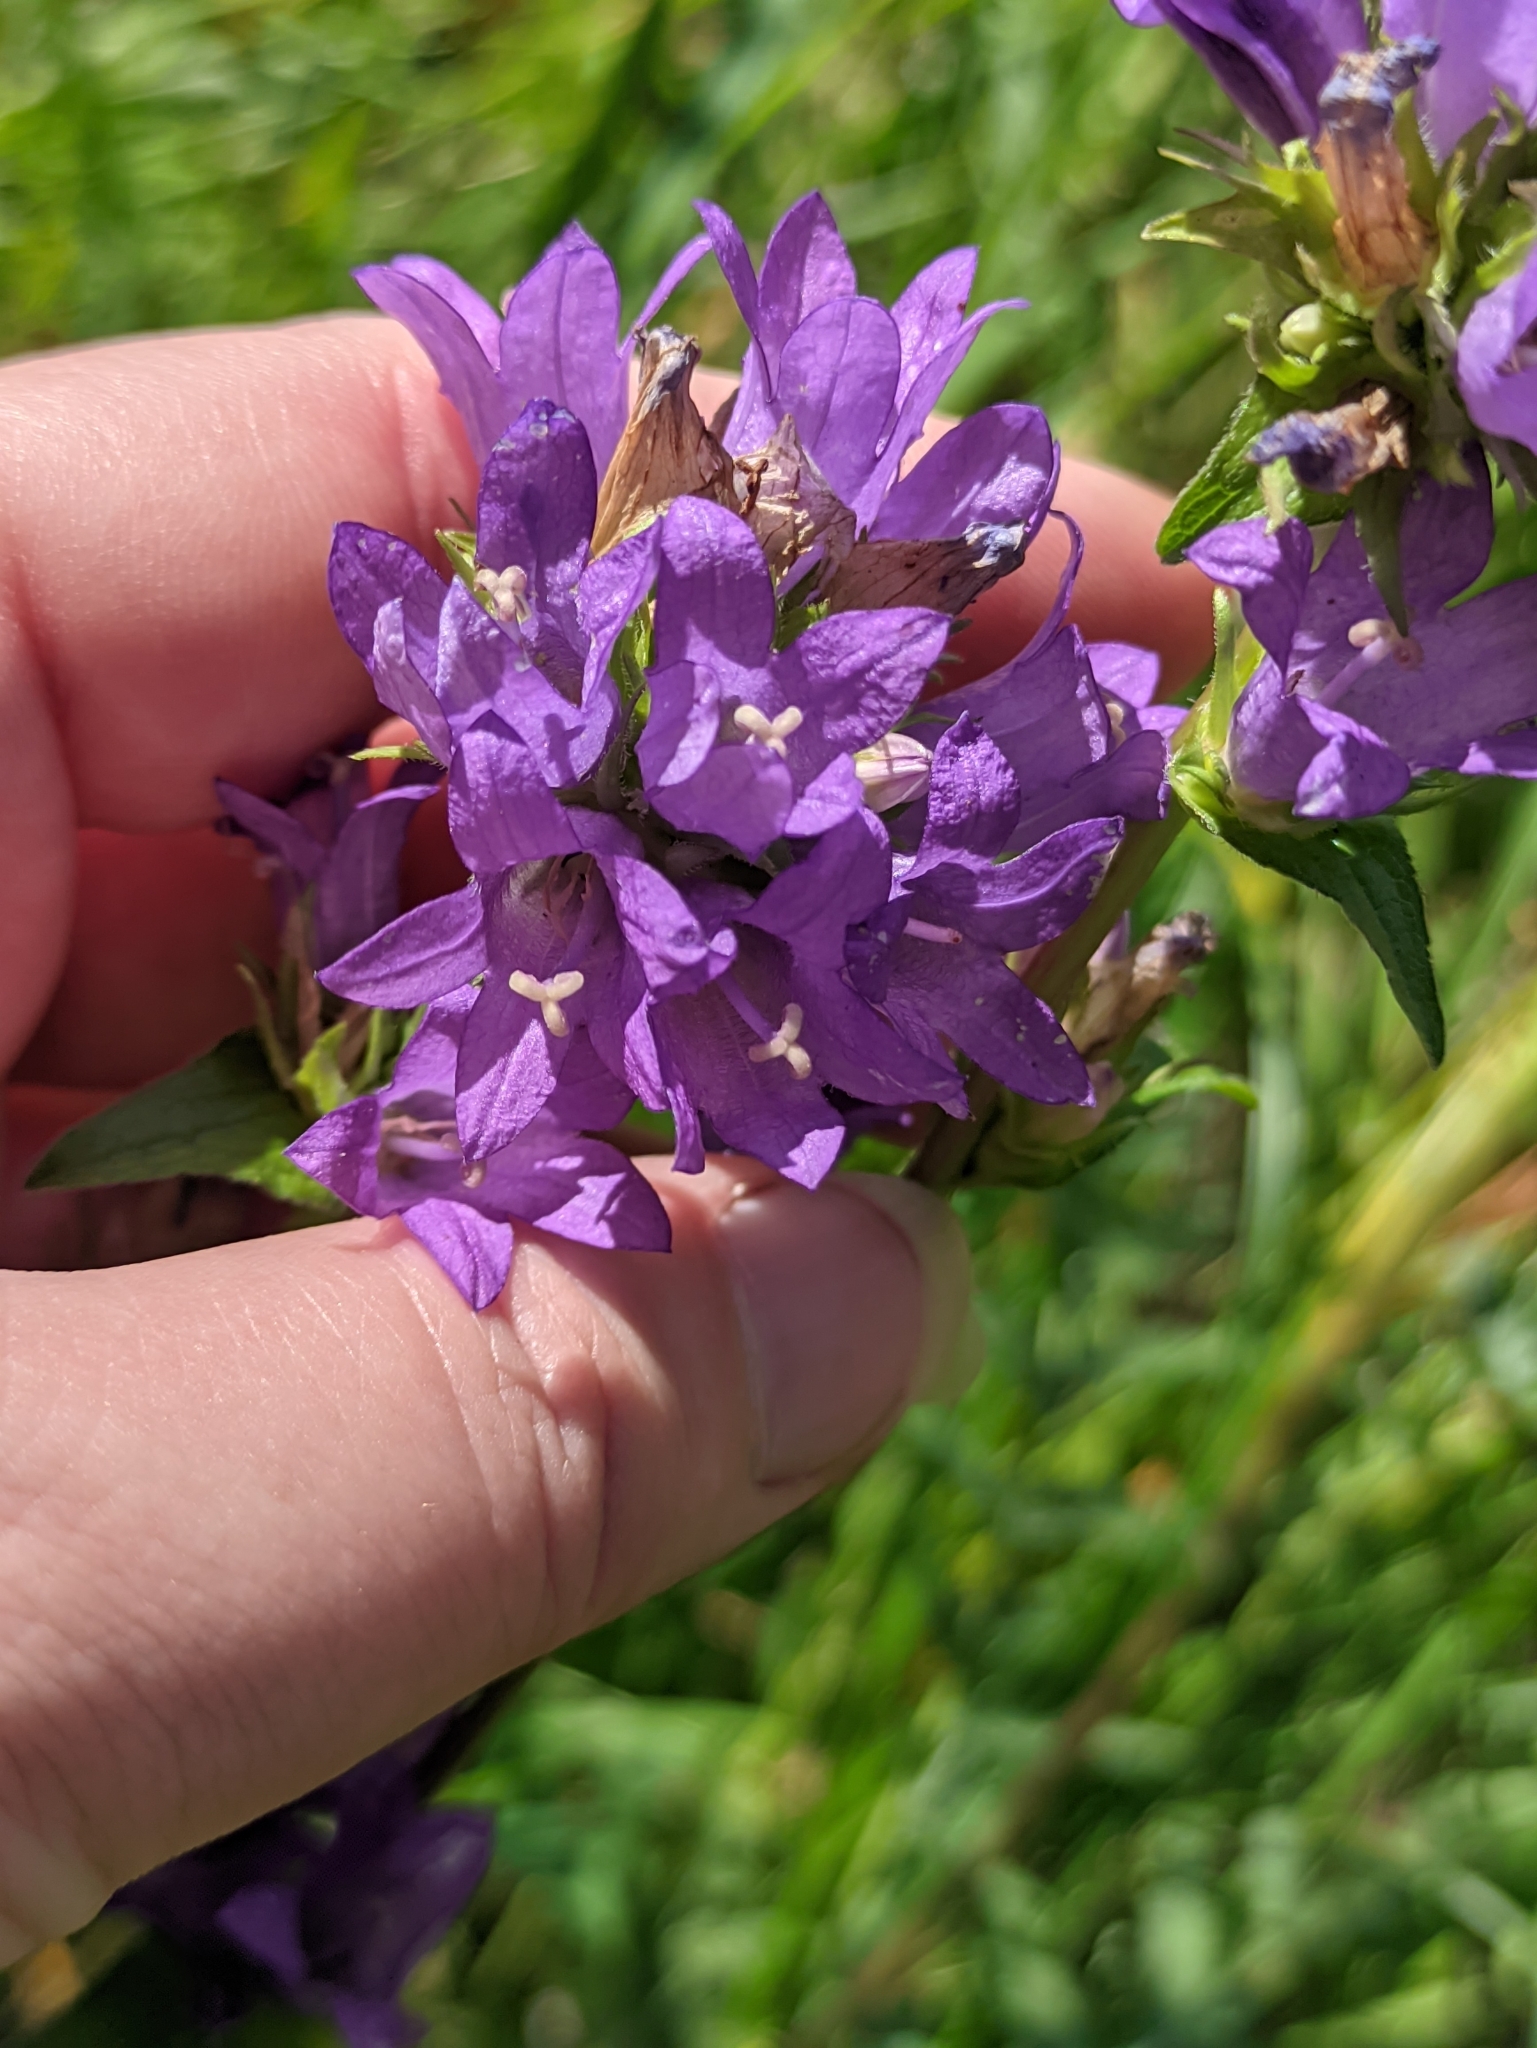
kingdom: Plantae
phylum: Tracheophyta
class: Magnoliopsida
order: Asterales
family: Campanulaceae
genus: Campanula
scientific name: Campanula glomerata
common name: Clustered bellflower
